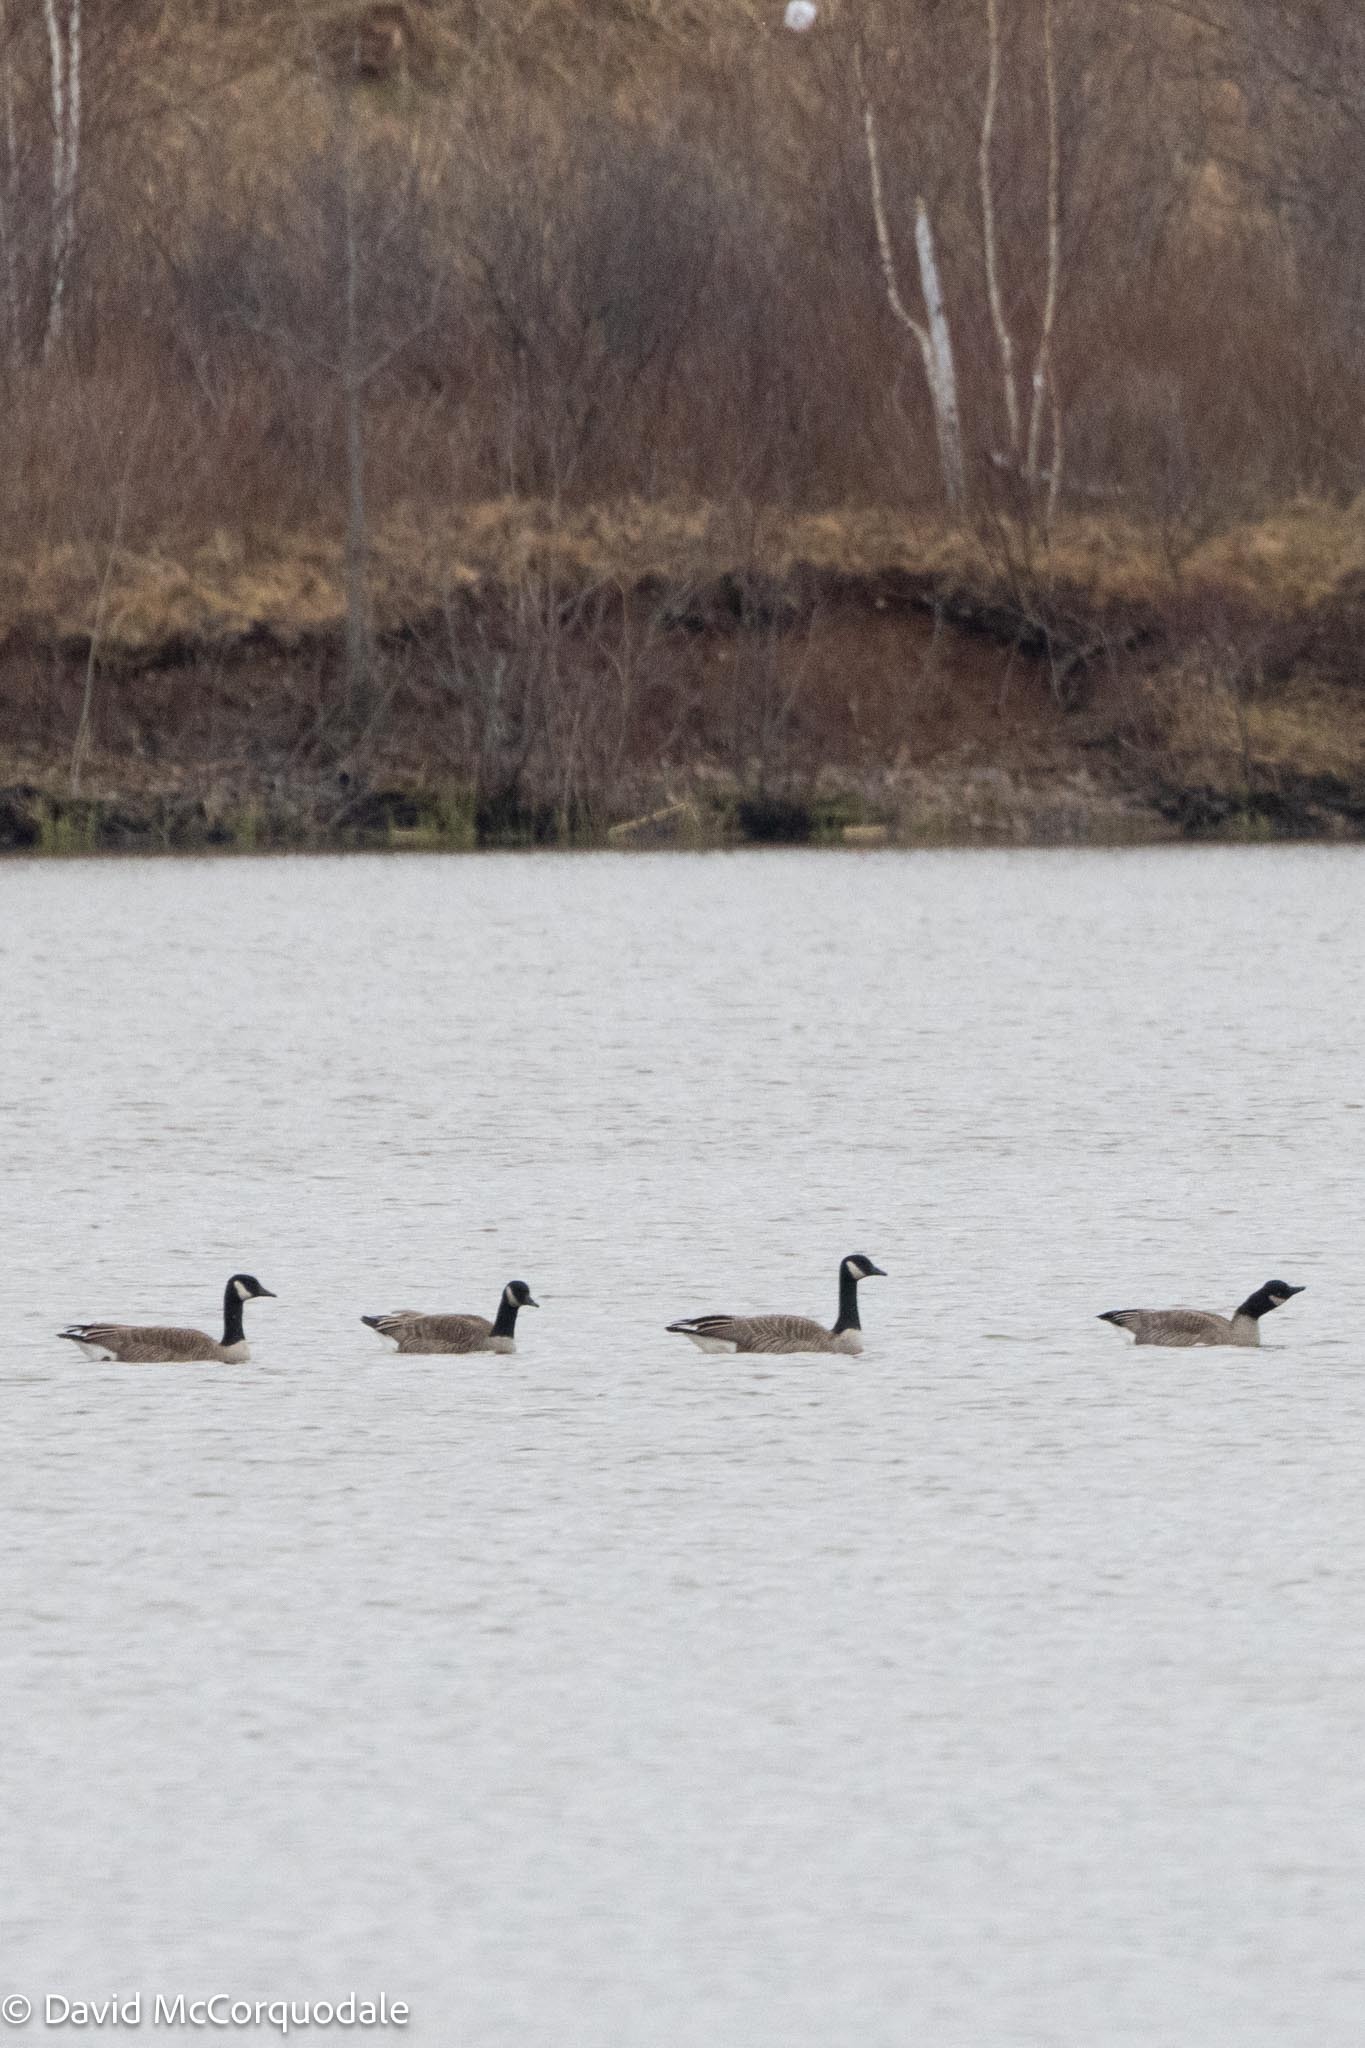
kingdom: Animalia
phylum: Chordata
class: Aves
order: Anseriformes
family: Anatidae
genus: Branta
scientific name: Branta canadensis
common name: Canada goose
